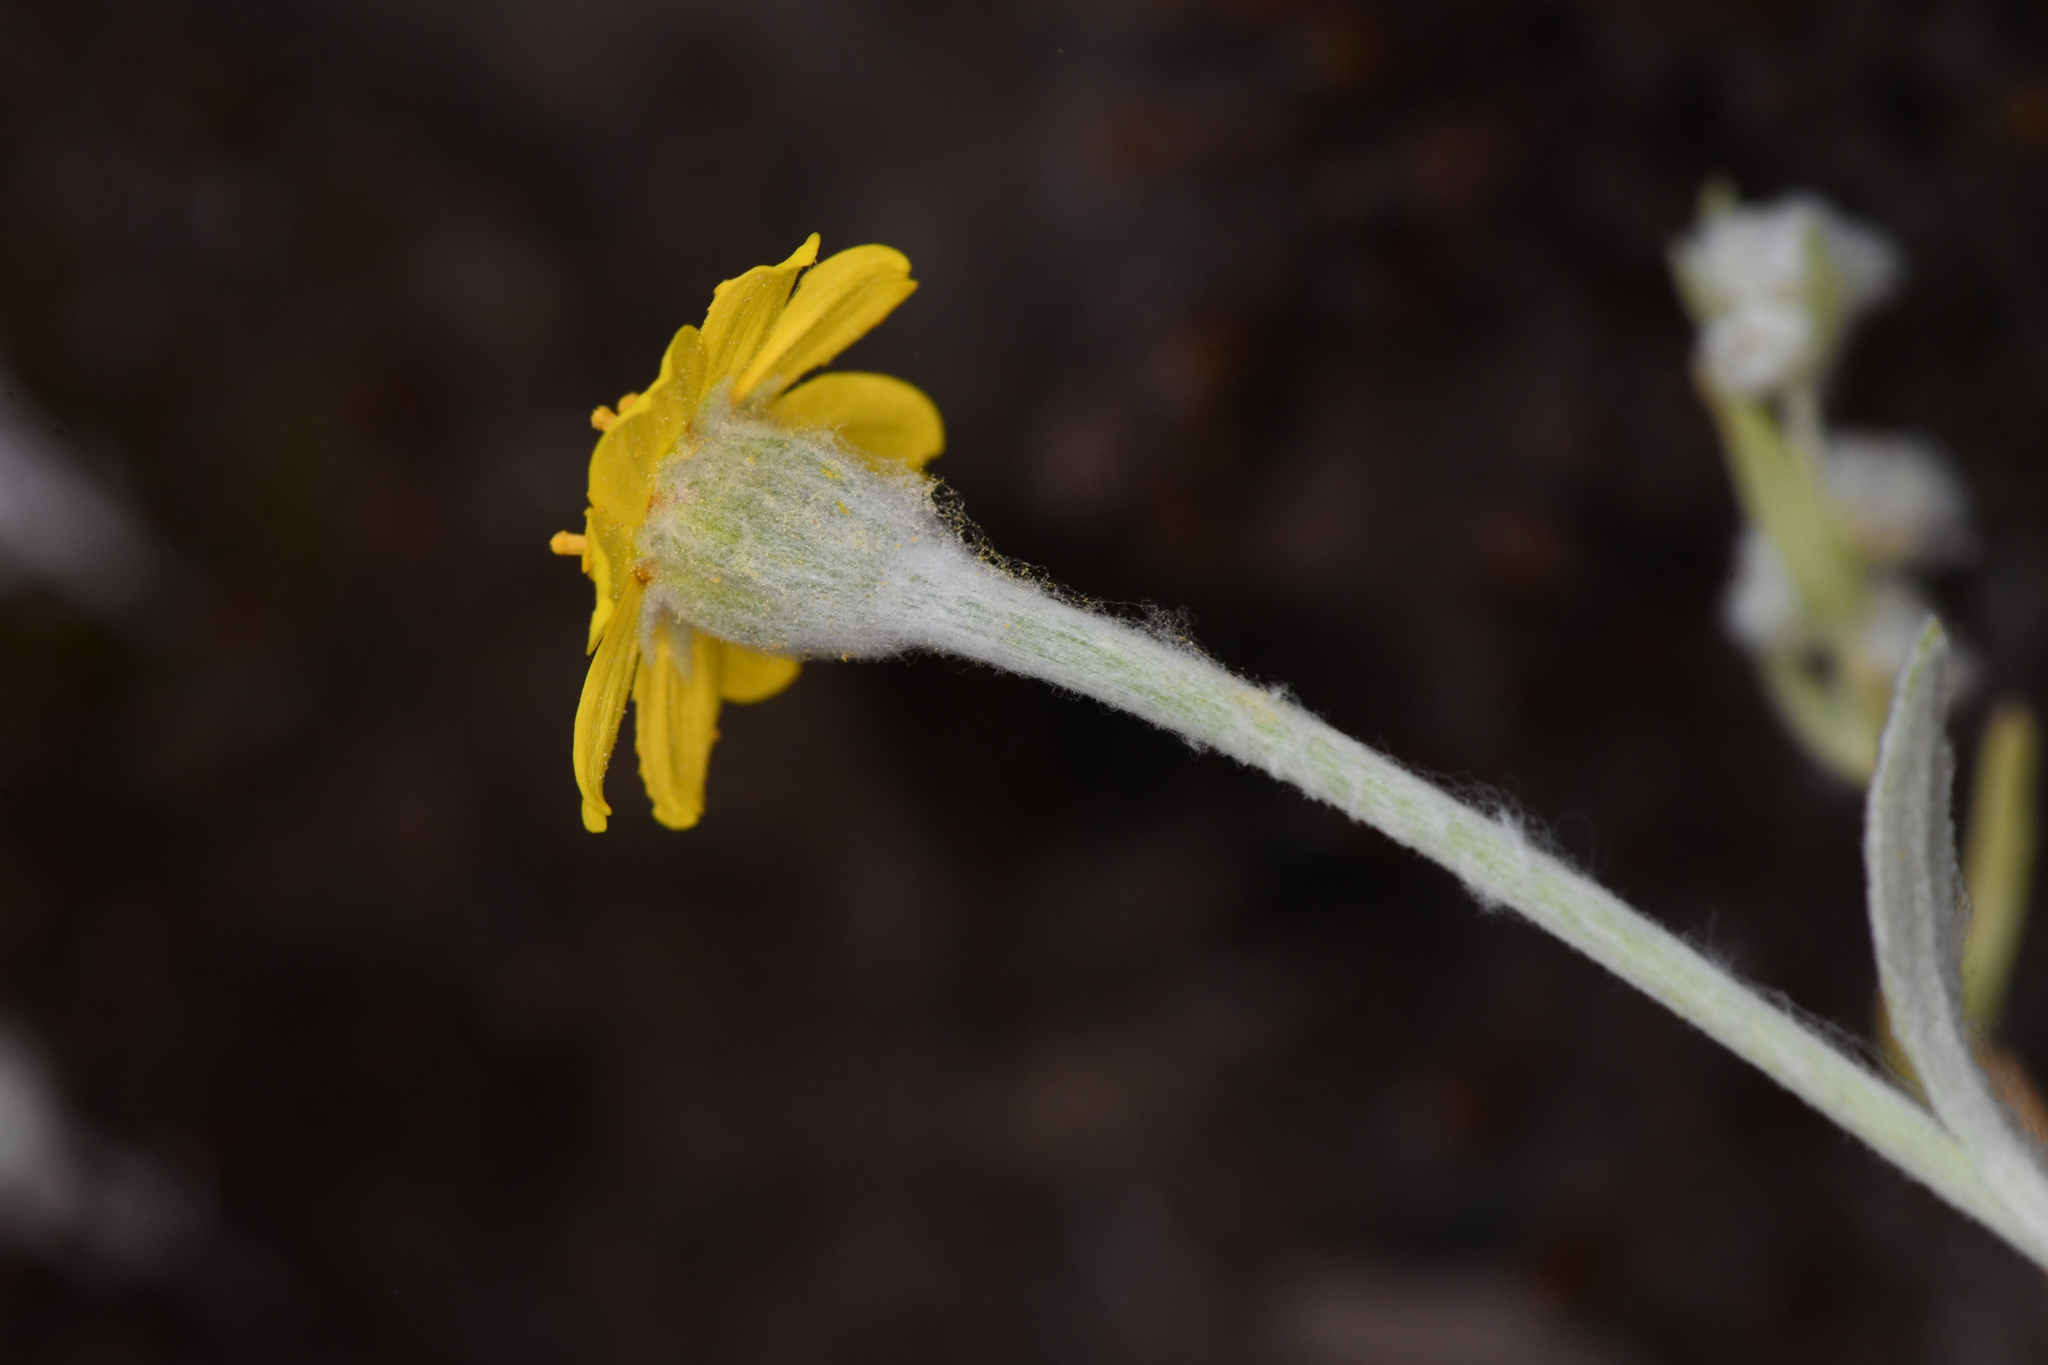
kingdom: Plantae
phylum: Tracheophyta
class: Magnoliopsida
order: Asterales
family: Asteraceae
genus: Eriophyllum
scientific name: Eriophyllum congdonii
